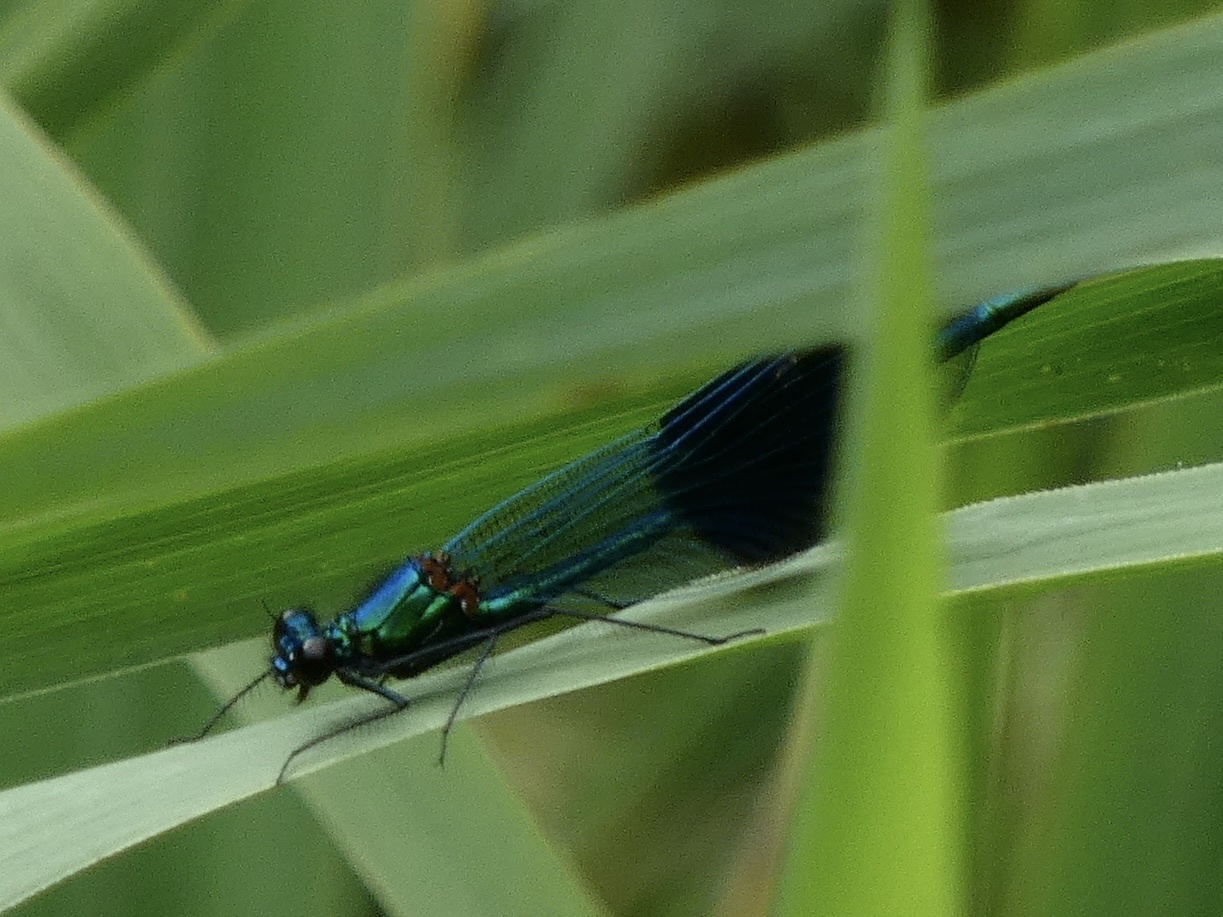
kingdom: Animalia
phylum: Arthropoda
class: Insecta
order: Odonata
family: Calopterygidae
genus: Calopteryx
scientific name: Calopteryx splendens
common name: Banded demoiselle
